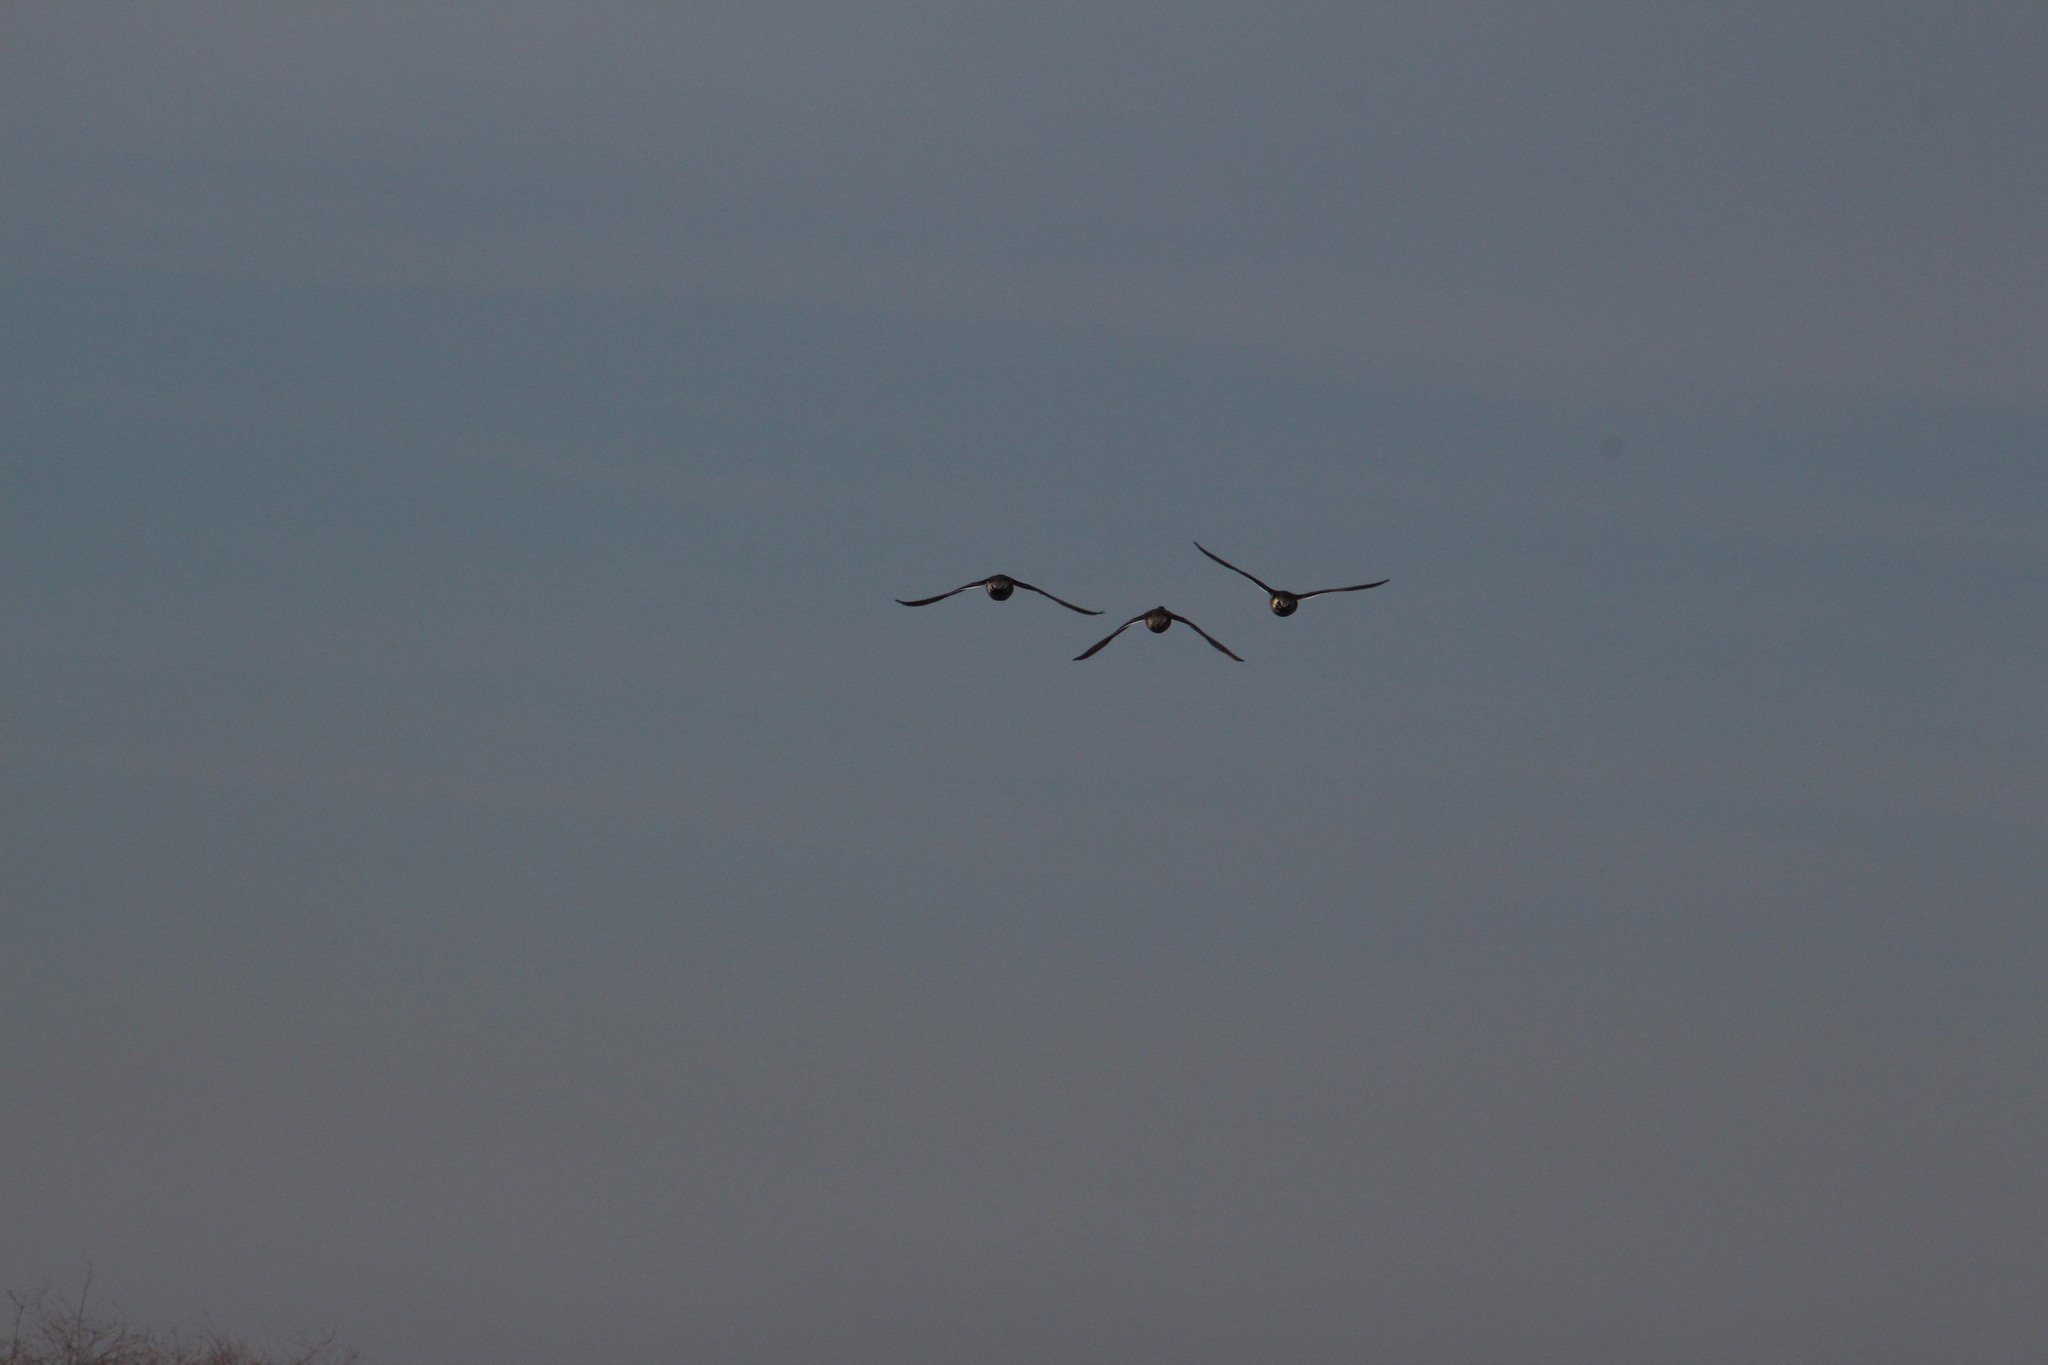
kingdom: Animalia
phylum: Chordata
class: Aves
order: Anseriformes
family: Anatidae
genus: Anas
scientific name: Anas acuta
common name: Northern pintail
